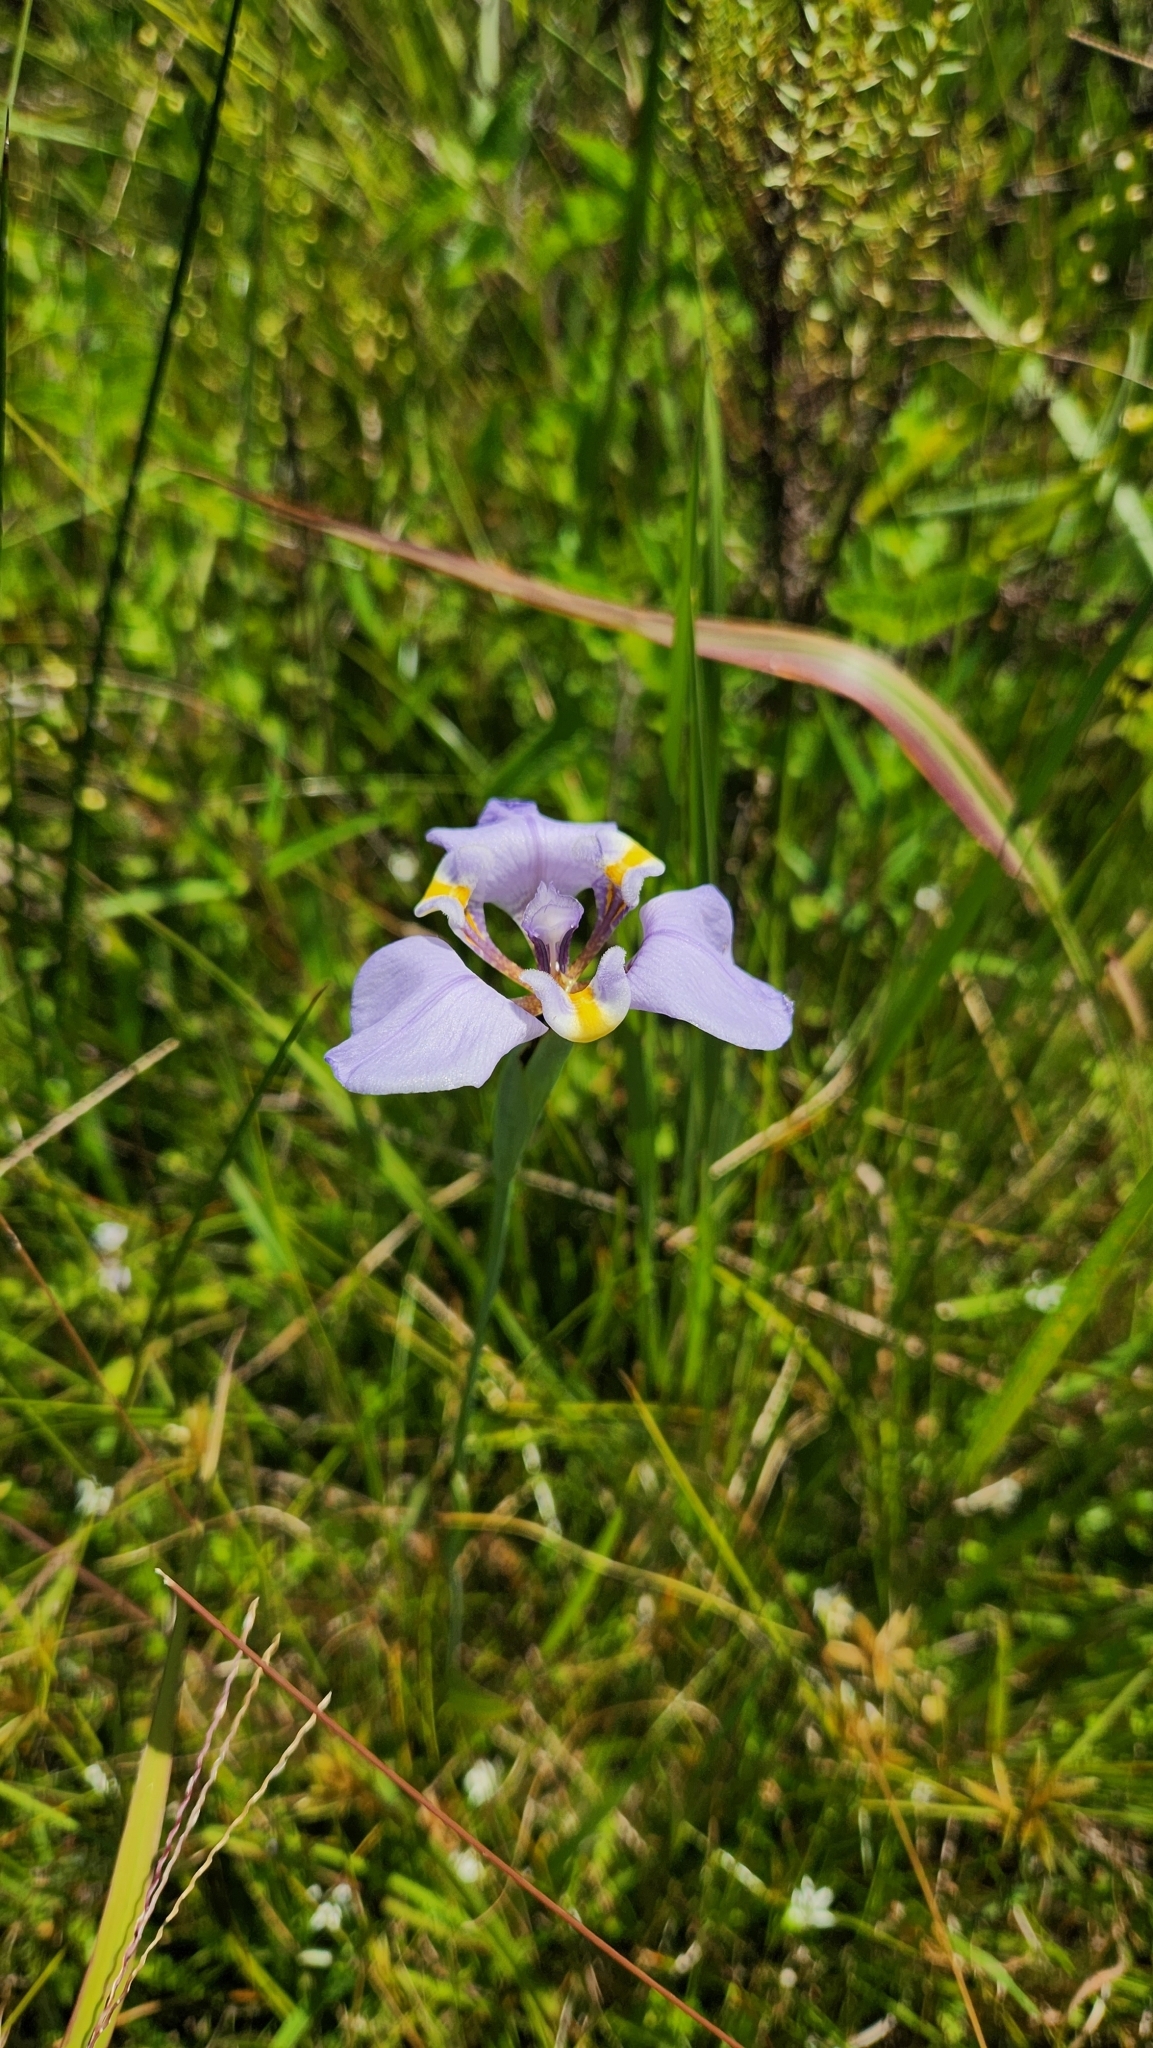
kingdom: Plantae
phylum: Tracheophyta
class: Liliopsida
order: Asparagales
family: Iridaceae
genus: Phalocallis
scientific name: Phalocallis coelestis
